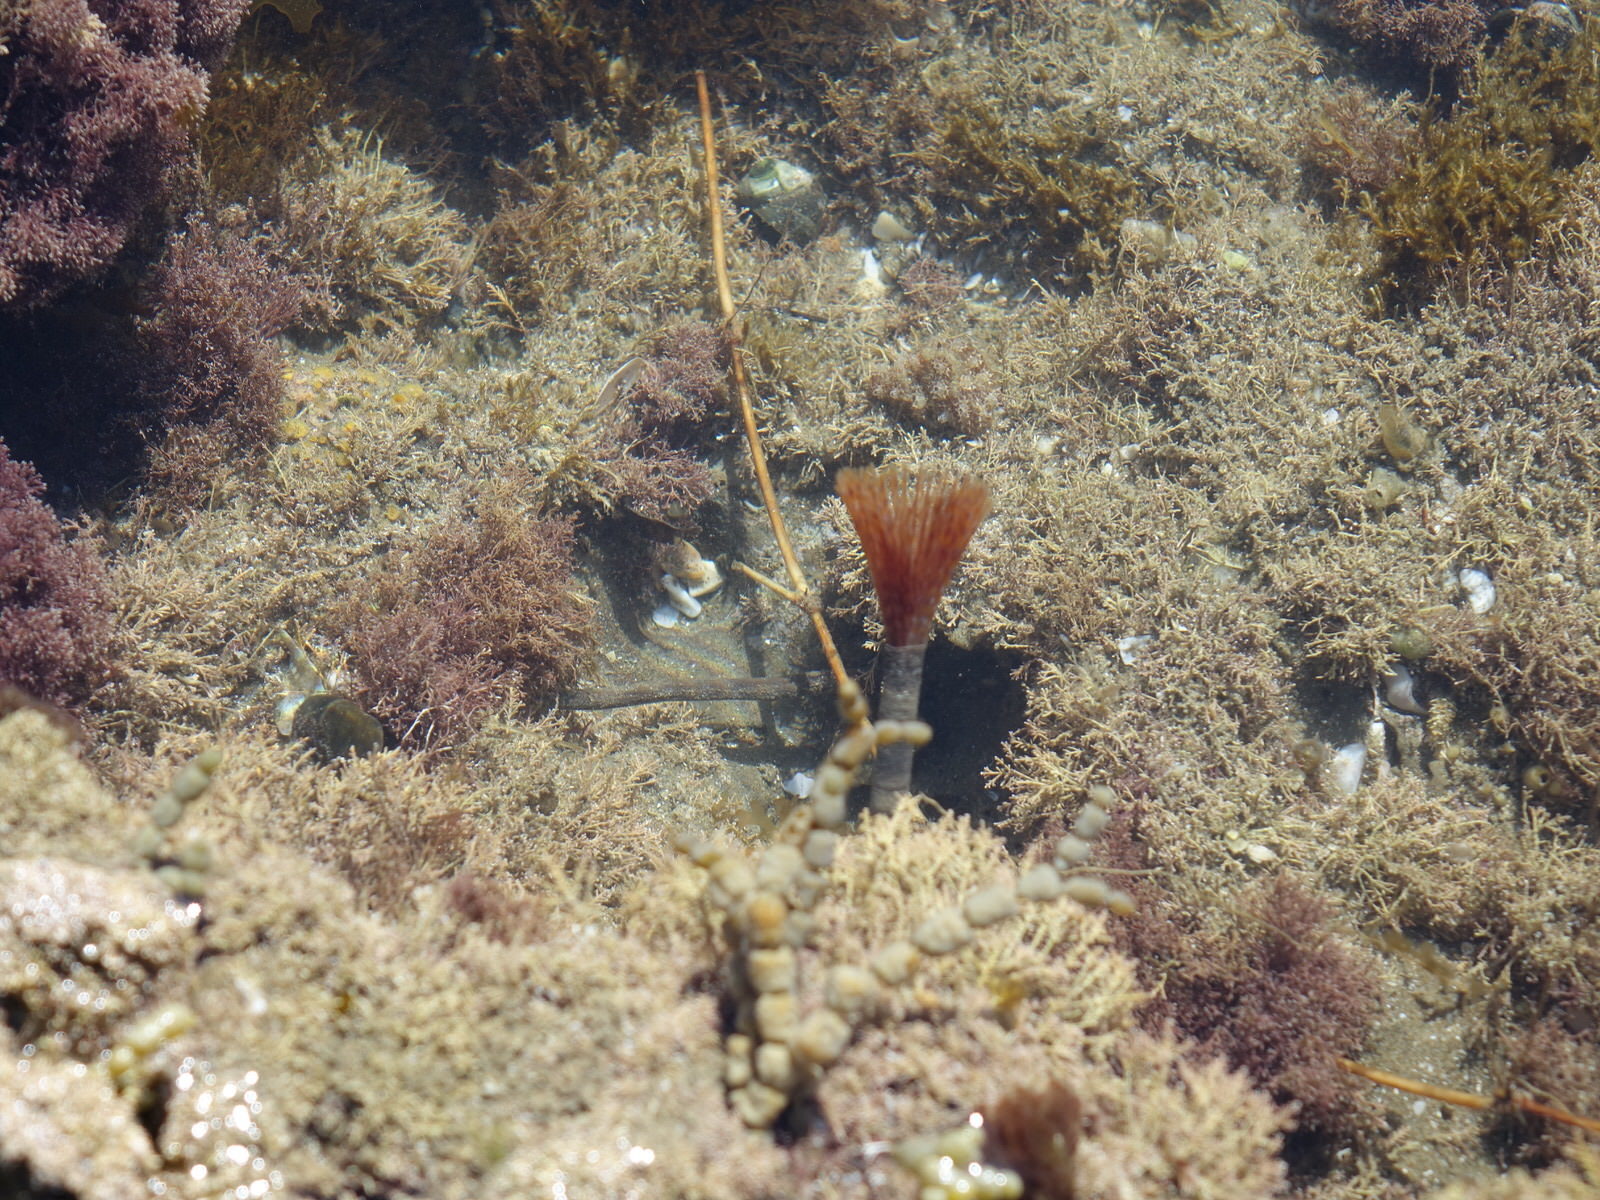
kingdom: Animalia
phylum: Annelida
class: Polychaeta
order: Sabellida
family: Sabellidae
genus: Sabella
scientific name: Sabella spallanzanii
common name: Feather duster worm
